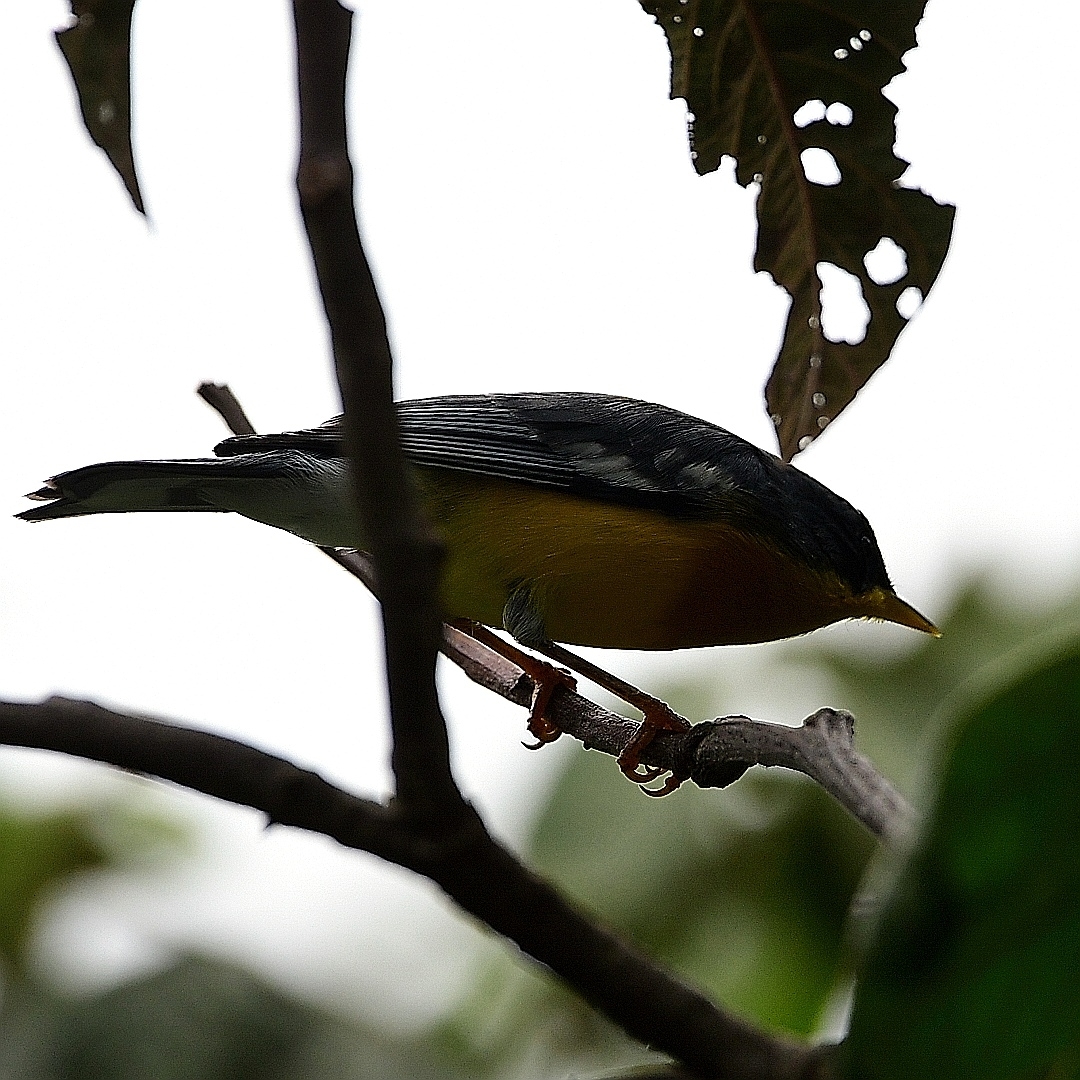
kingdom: Animalia
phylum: Chordata
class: Aves
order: Passeriformes
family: Parulidae
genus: Setophaga
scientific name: Setophaga pitiayumi
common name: Tropical parula
